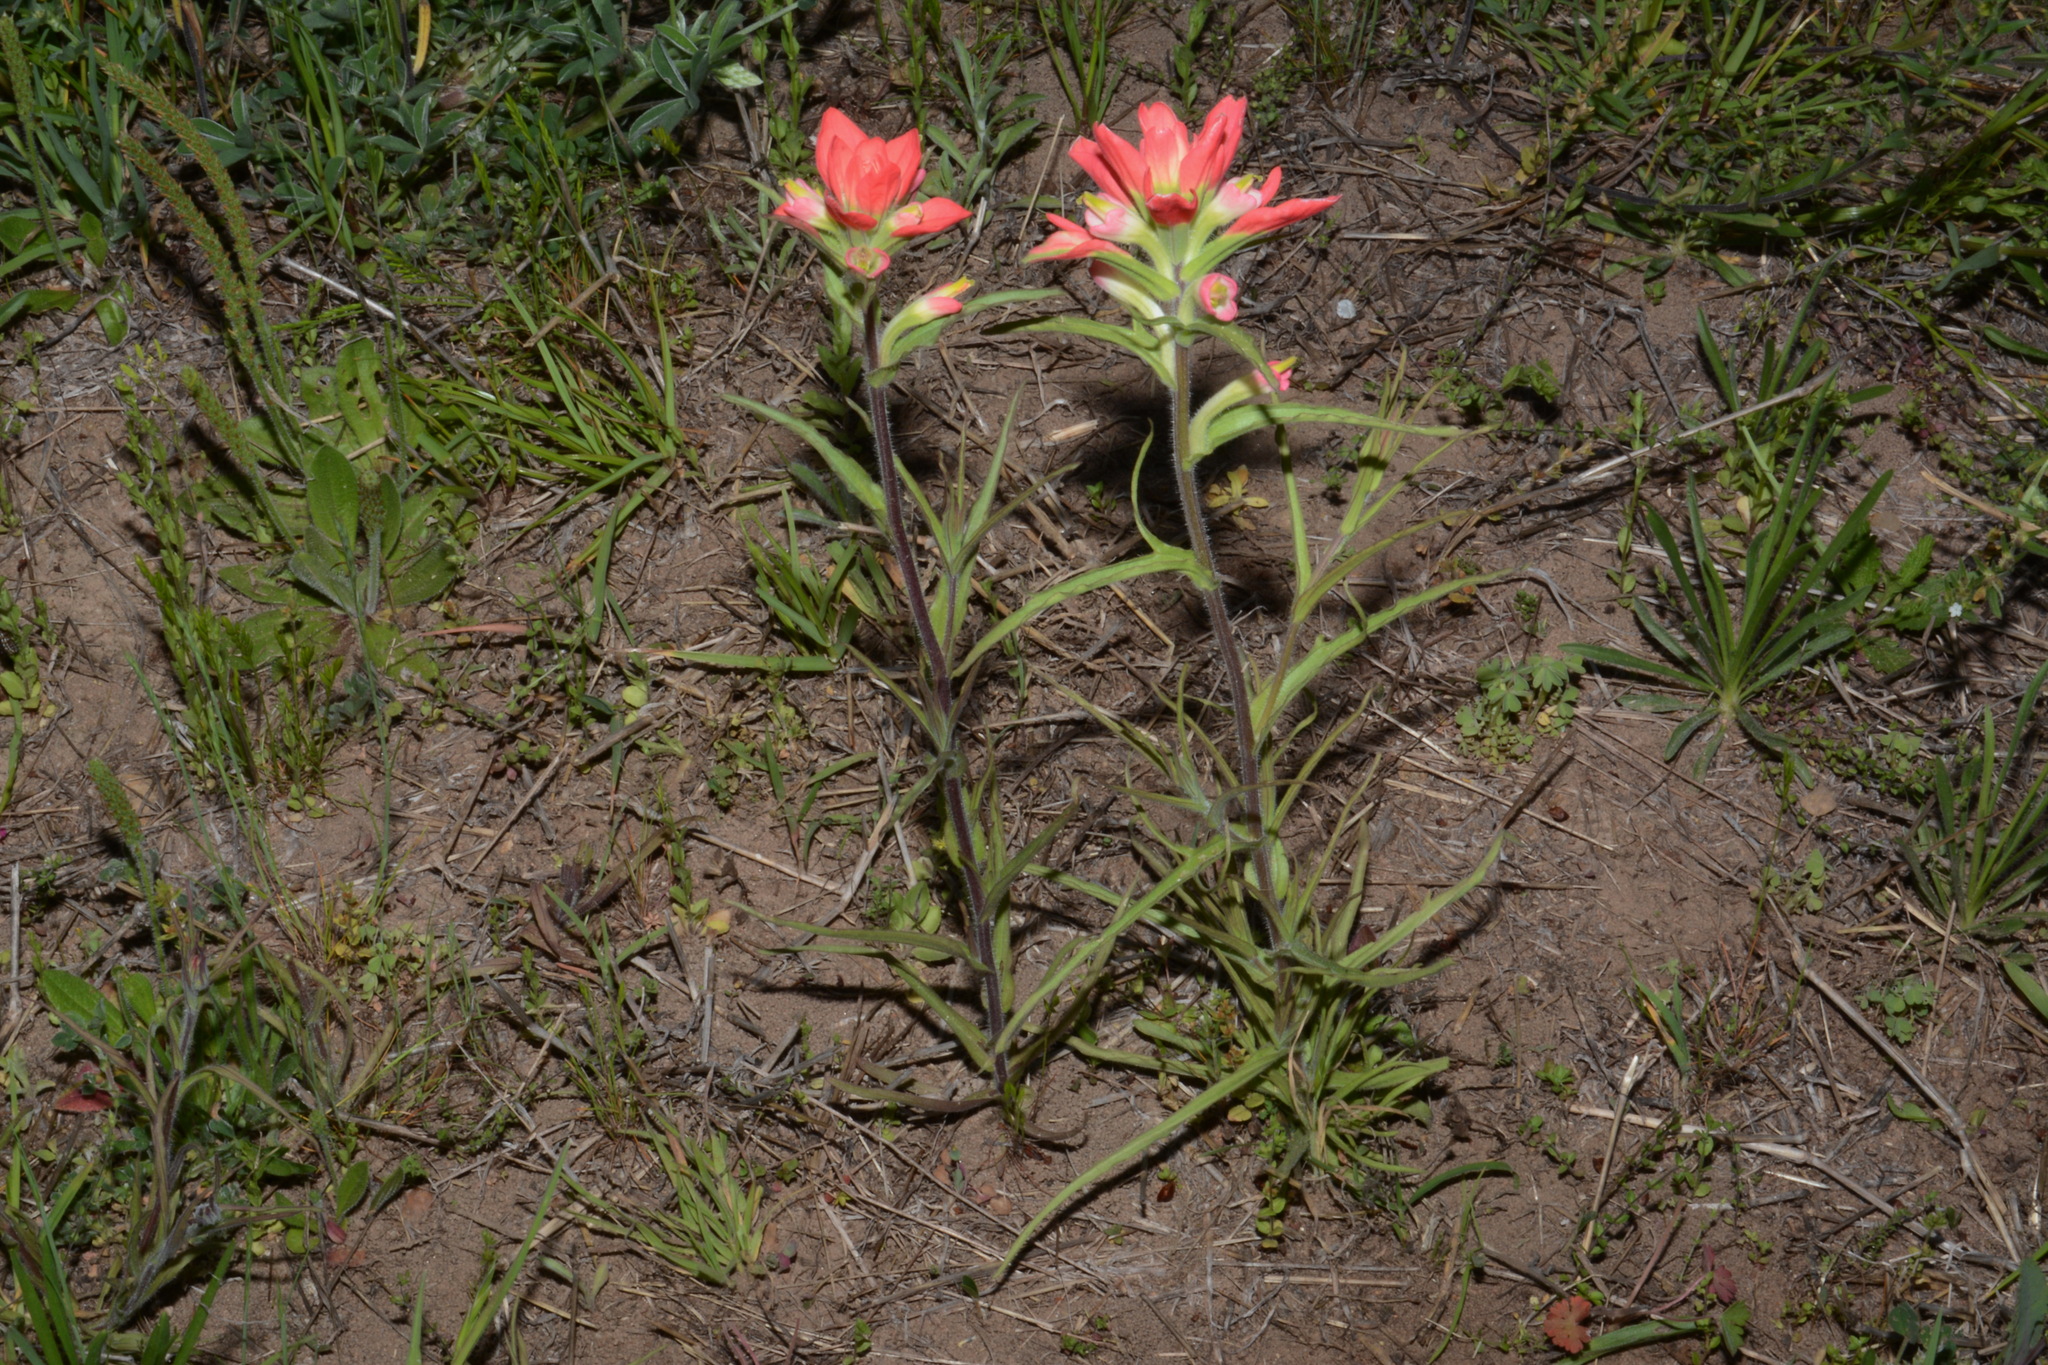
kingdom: Plantae
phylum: Tracheophyta
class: Magnoliopsida
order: Lamiales
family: Orobanchaceae
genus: Castilleja
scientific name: Castilleja indivisa
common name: Texas paintbrush
